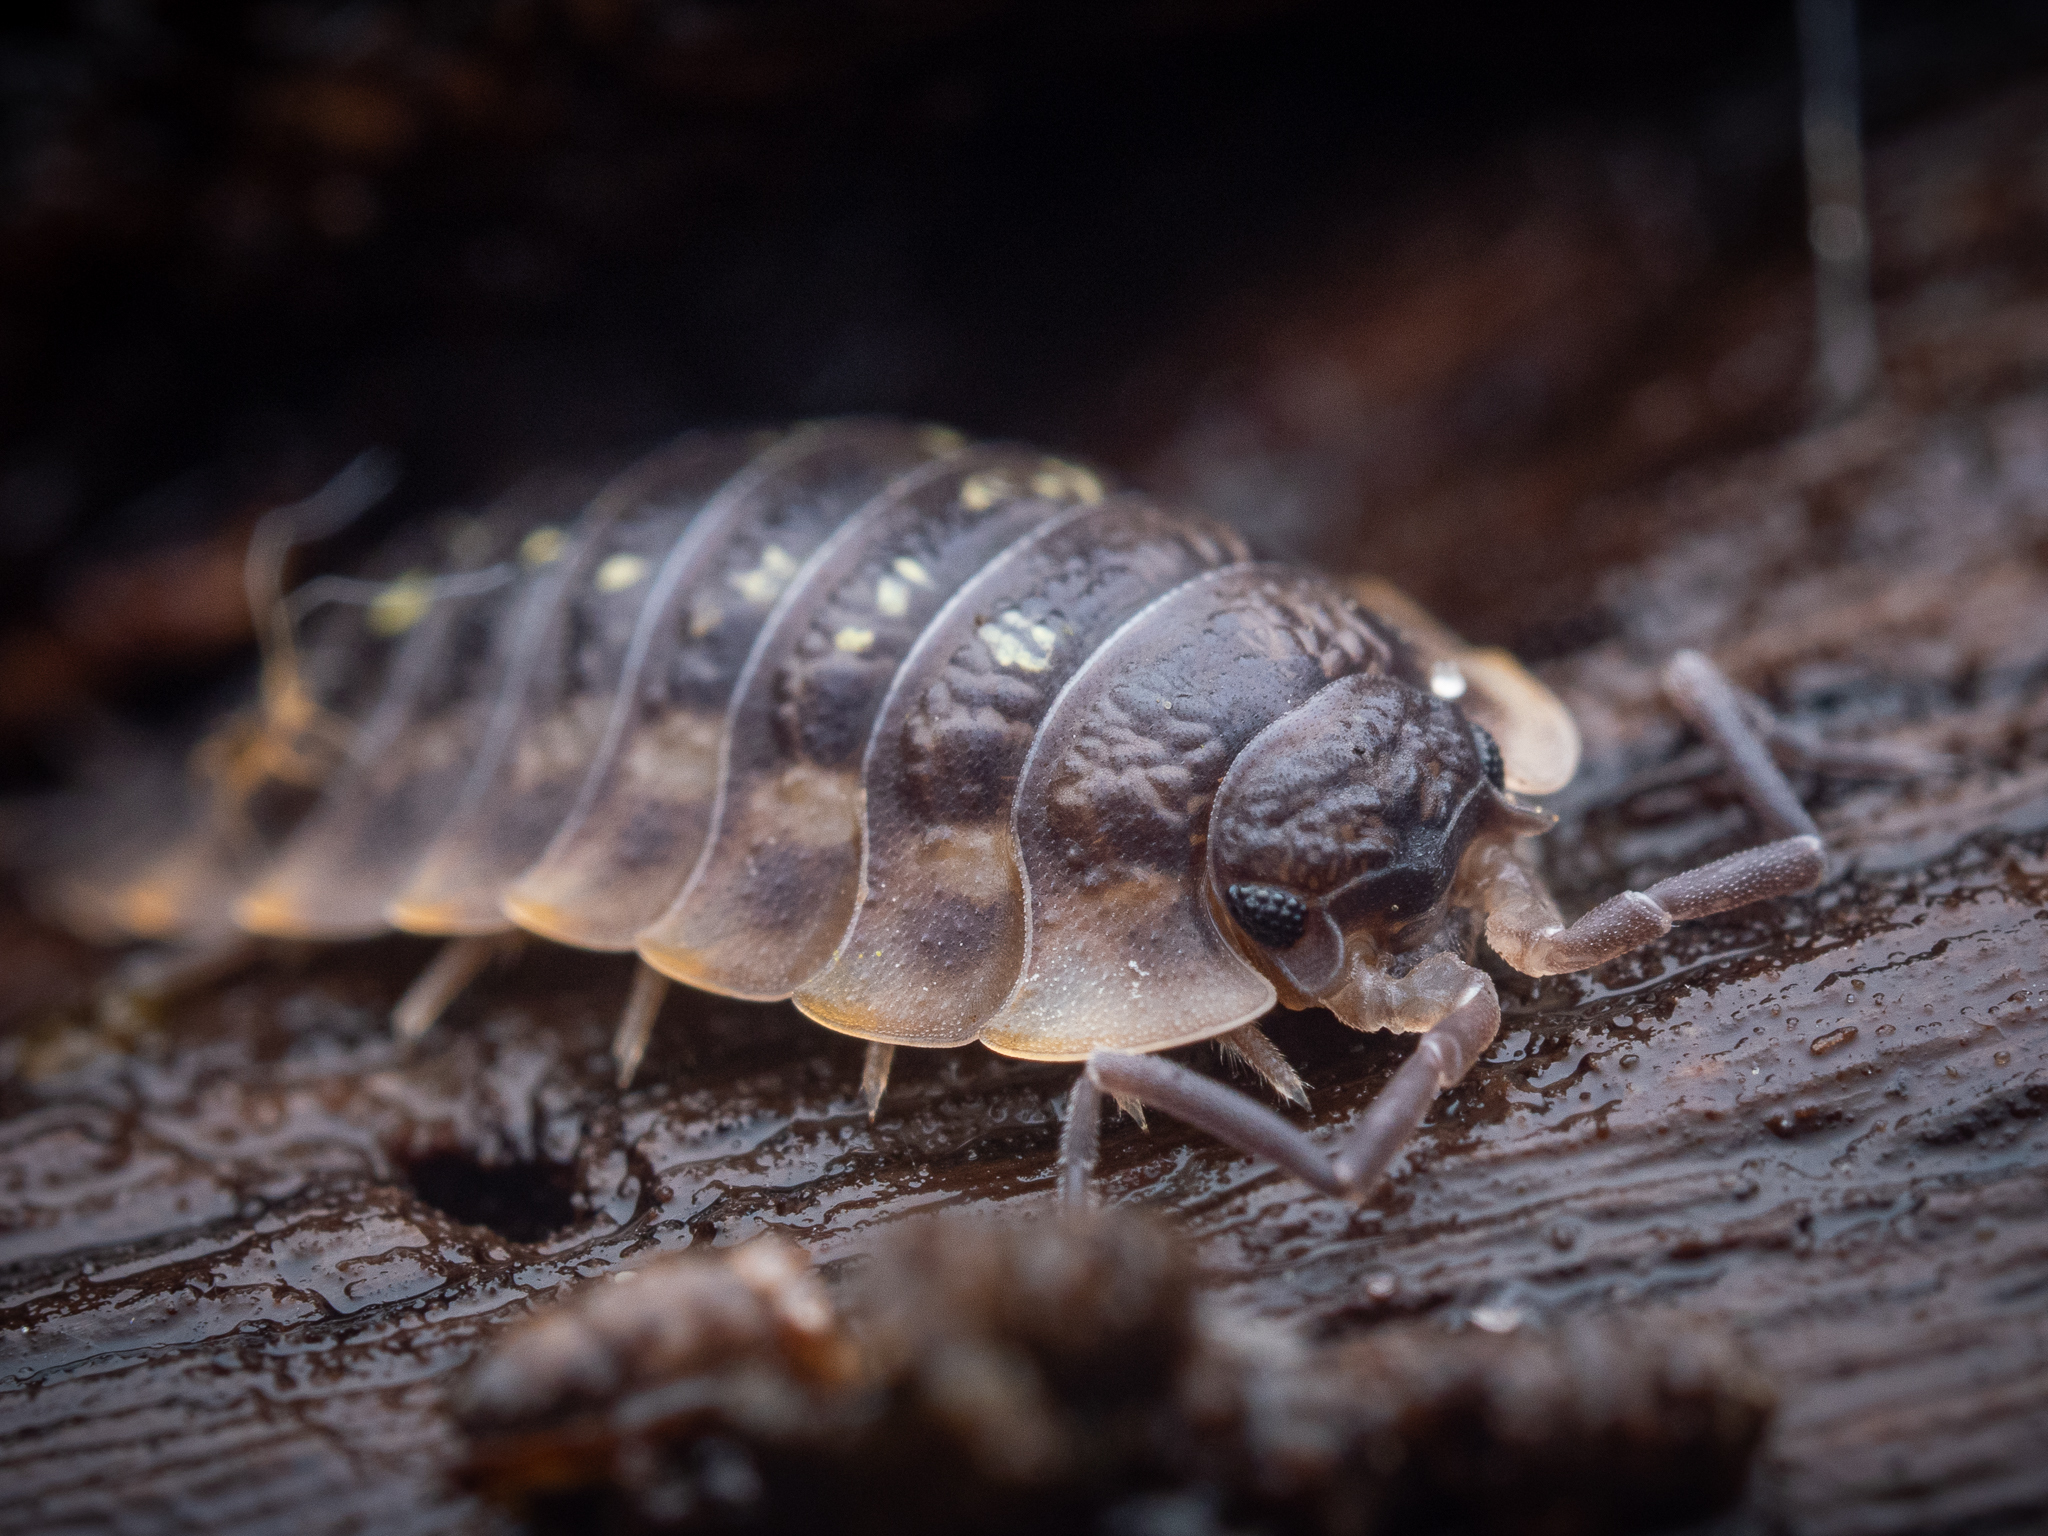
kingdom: Animalia
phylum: Arthropoda
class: Malacostraca
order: Isopoda
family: Oniscidae
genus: Oniscus
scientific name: Oniscus asellus
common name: Common shiny woodlouse
